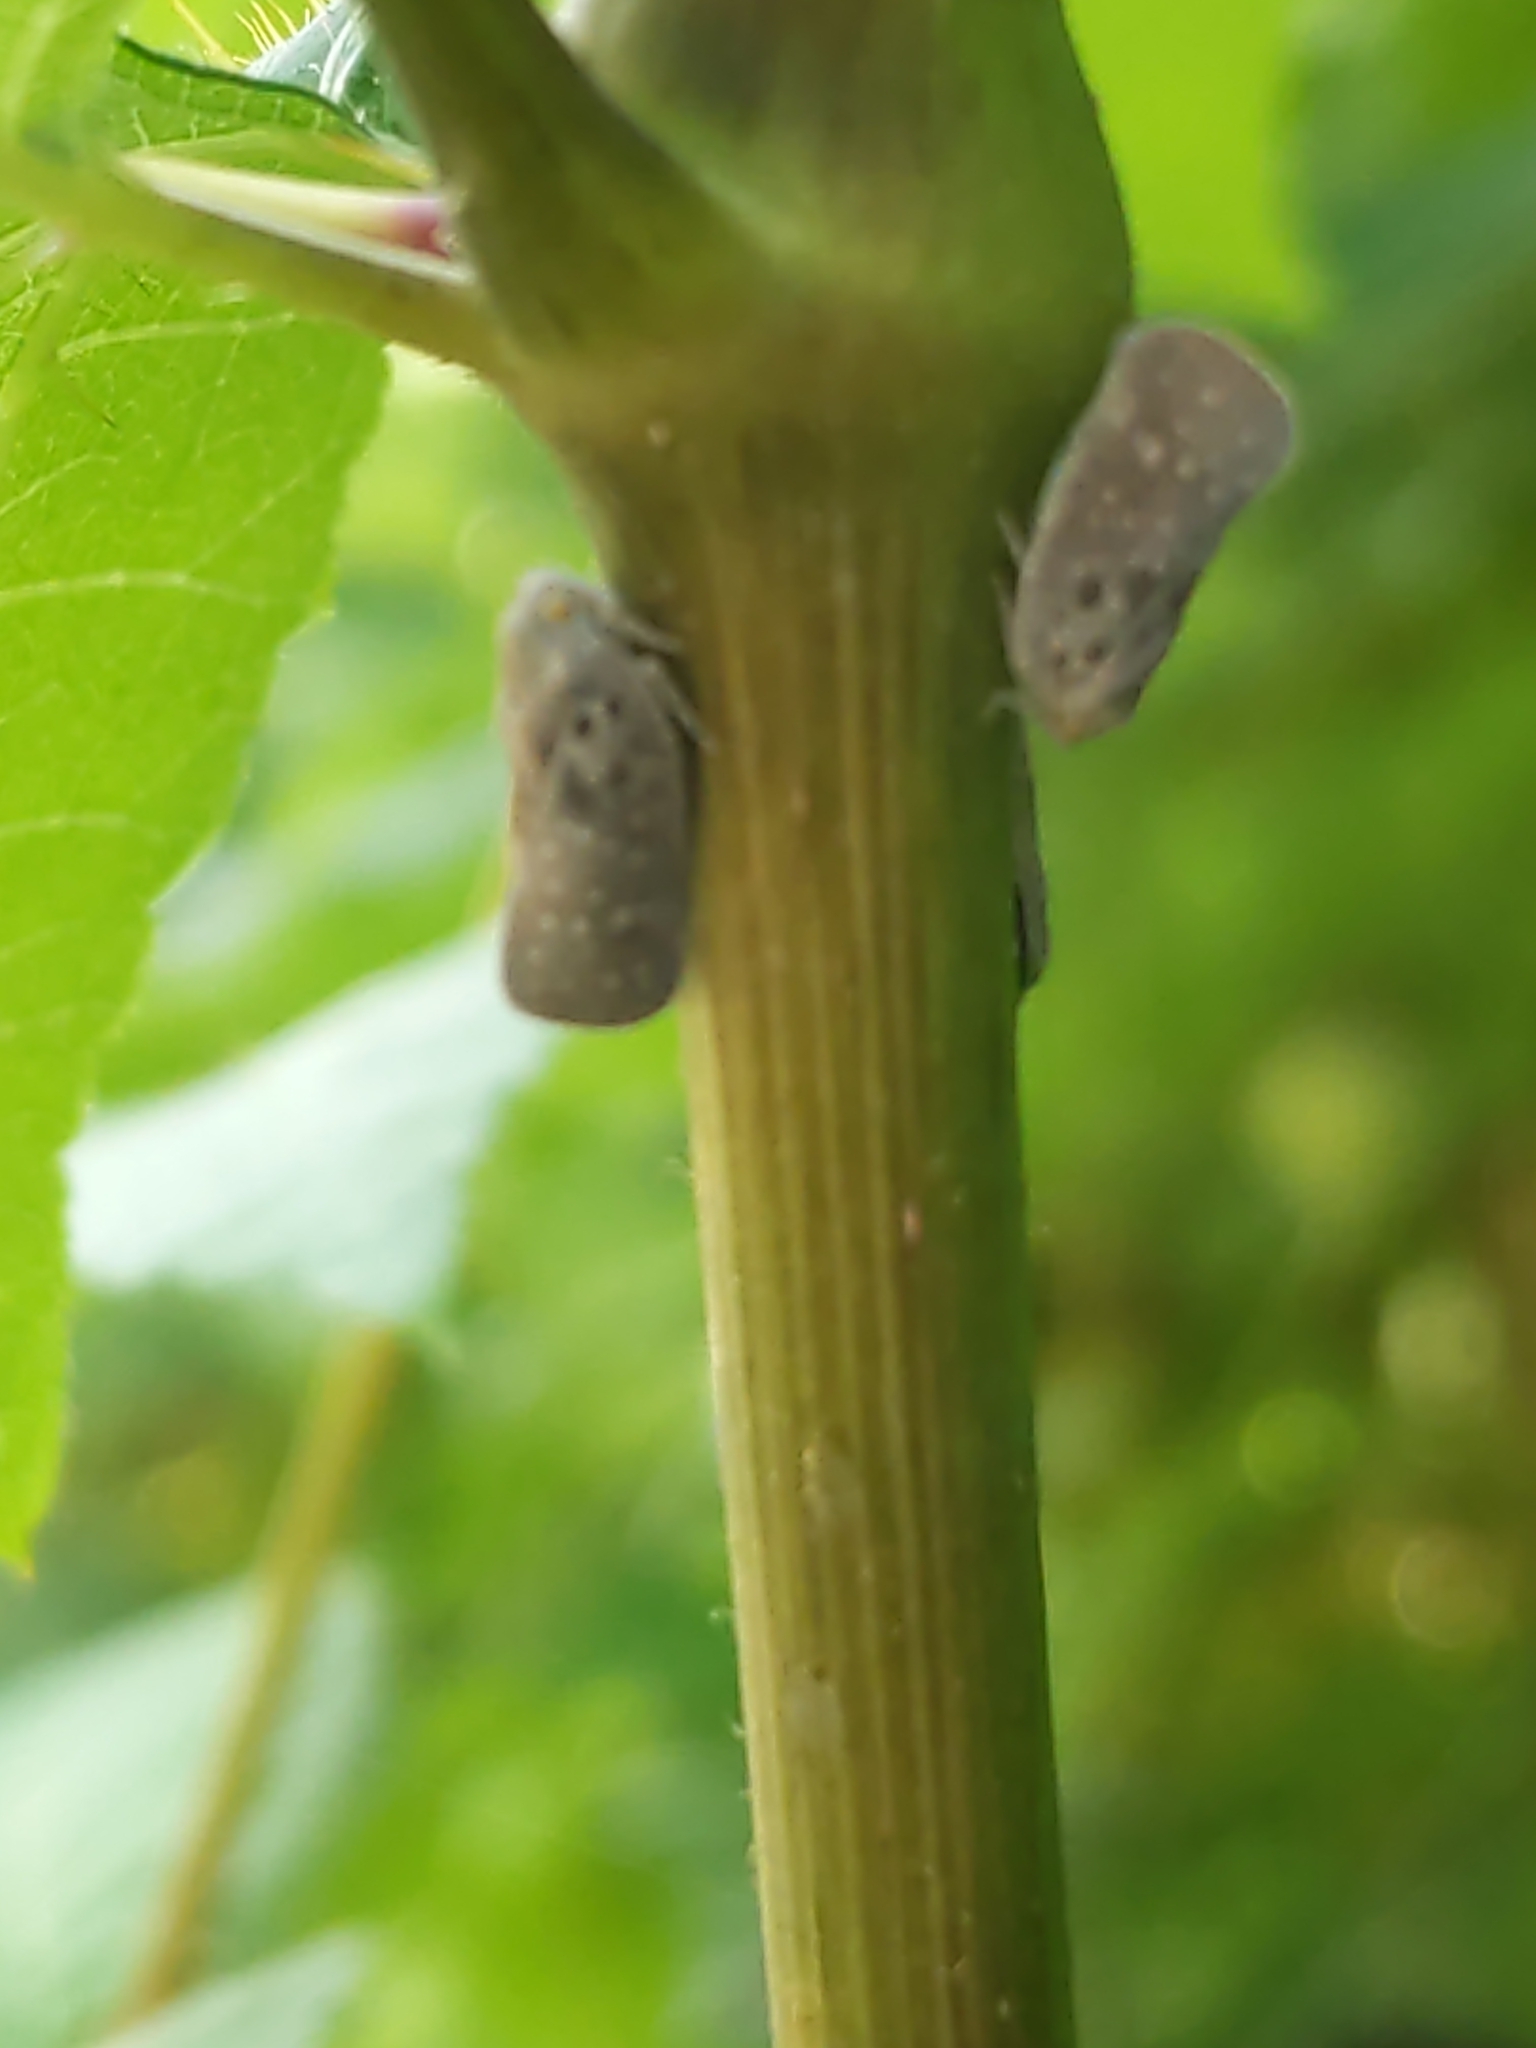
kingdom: Animalia
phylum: Arthropoda
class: Insecta
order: Hemiptera
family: Flatidae
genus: Metcalfa
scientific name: Metcalfa pruinosa
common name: Citrus flatid planthopper
